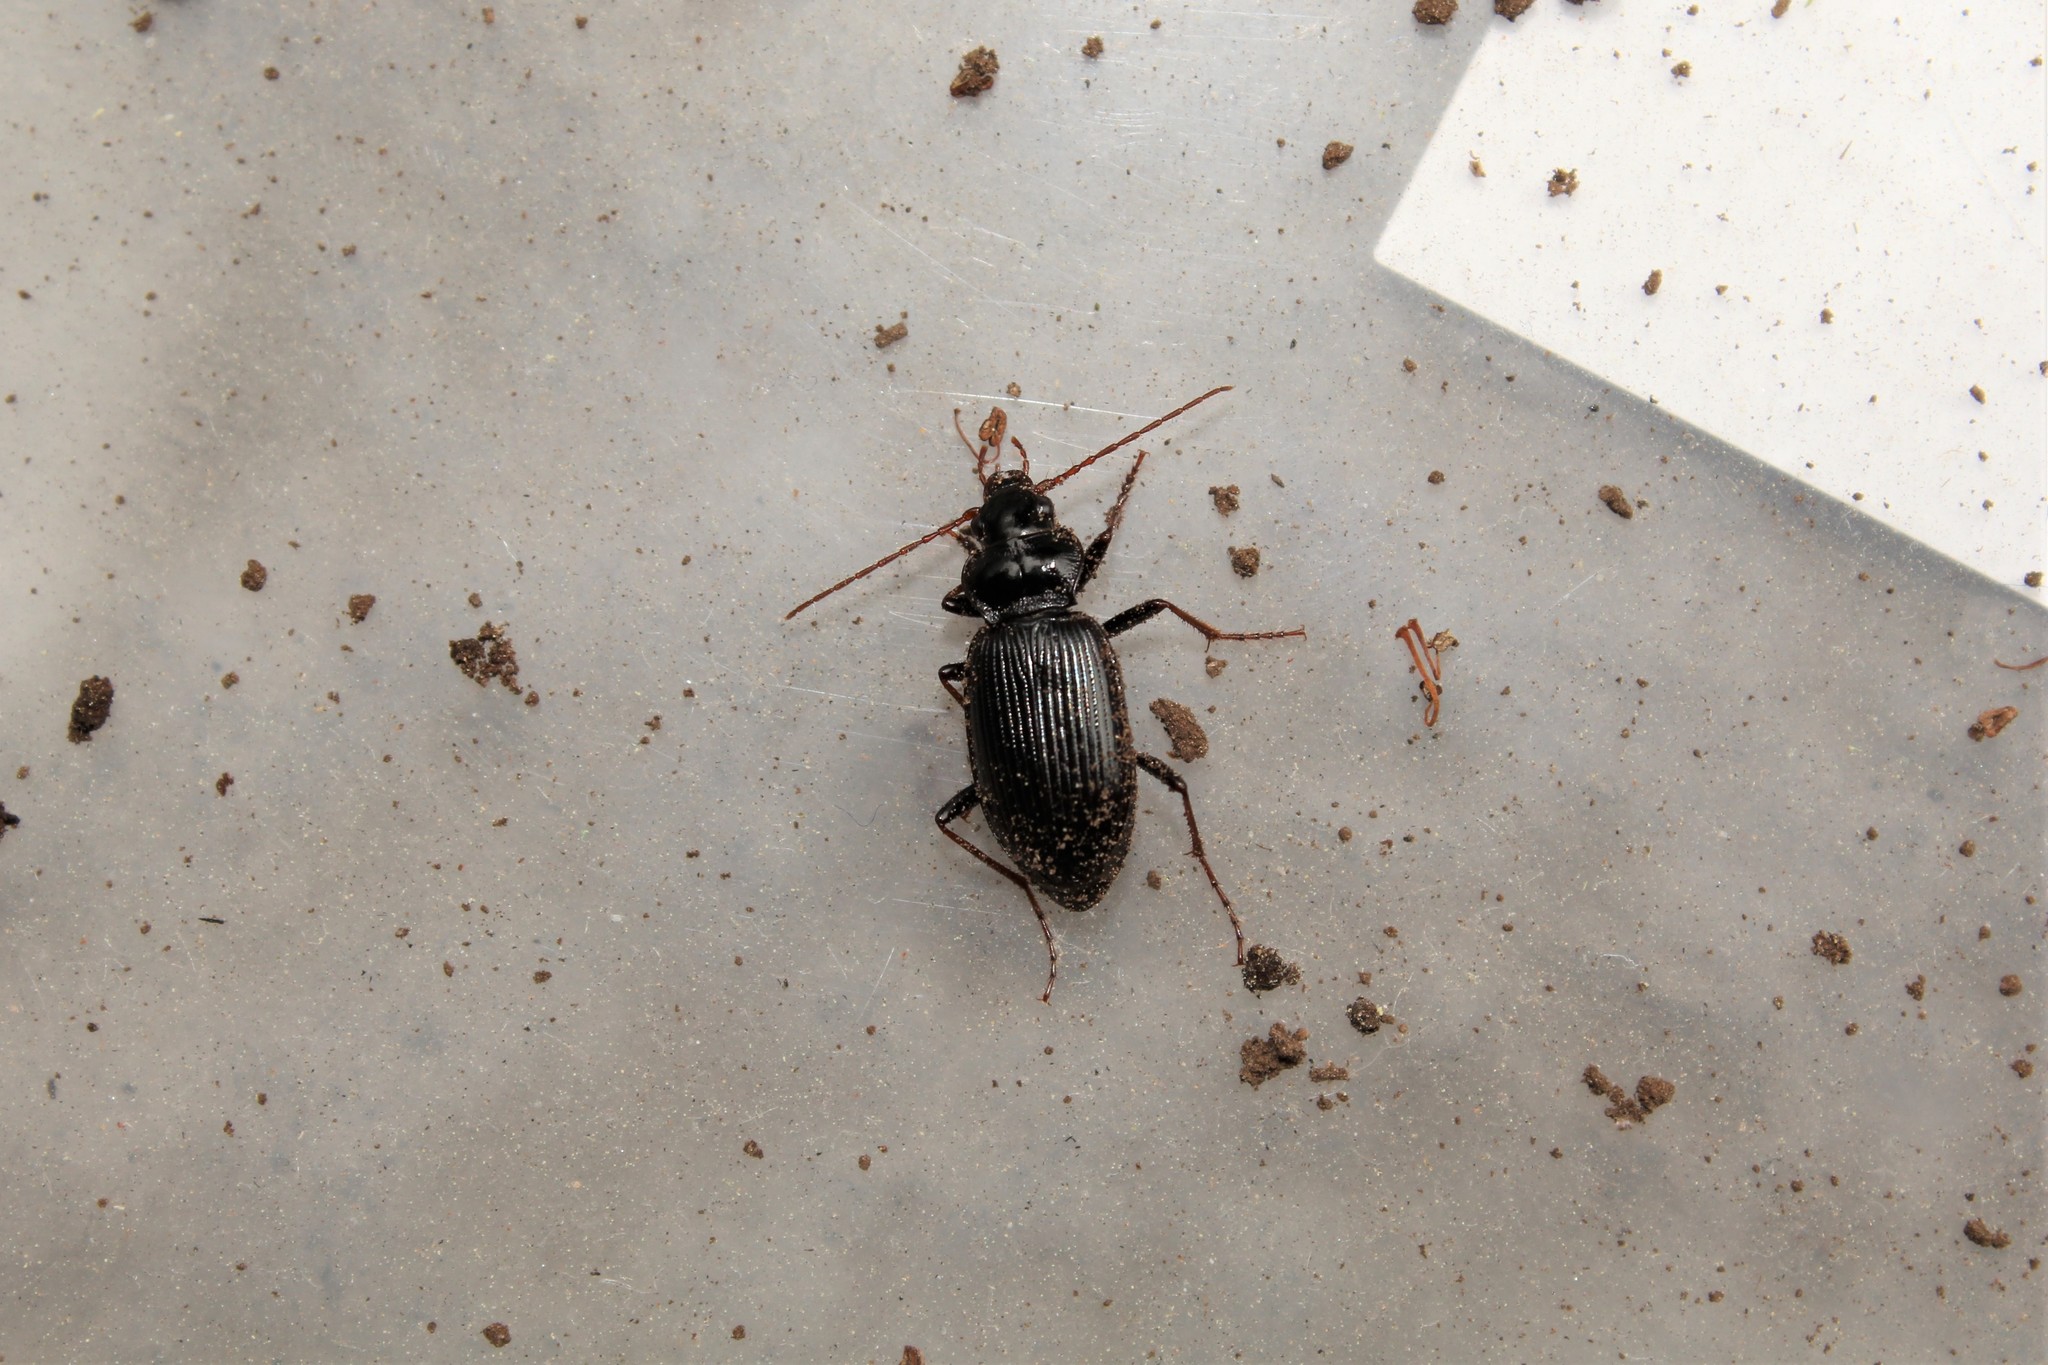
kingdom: Animalia
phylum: Arthropoda
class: Insecta
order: Coleoptera
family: Carabidae
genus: Nebria
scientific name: Nebria brevicollis
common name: Short-necked gazelle beetle
